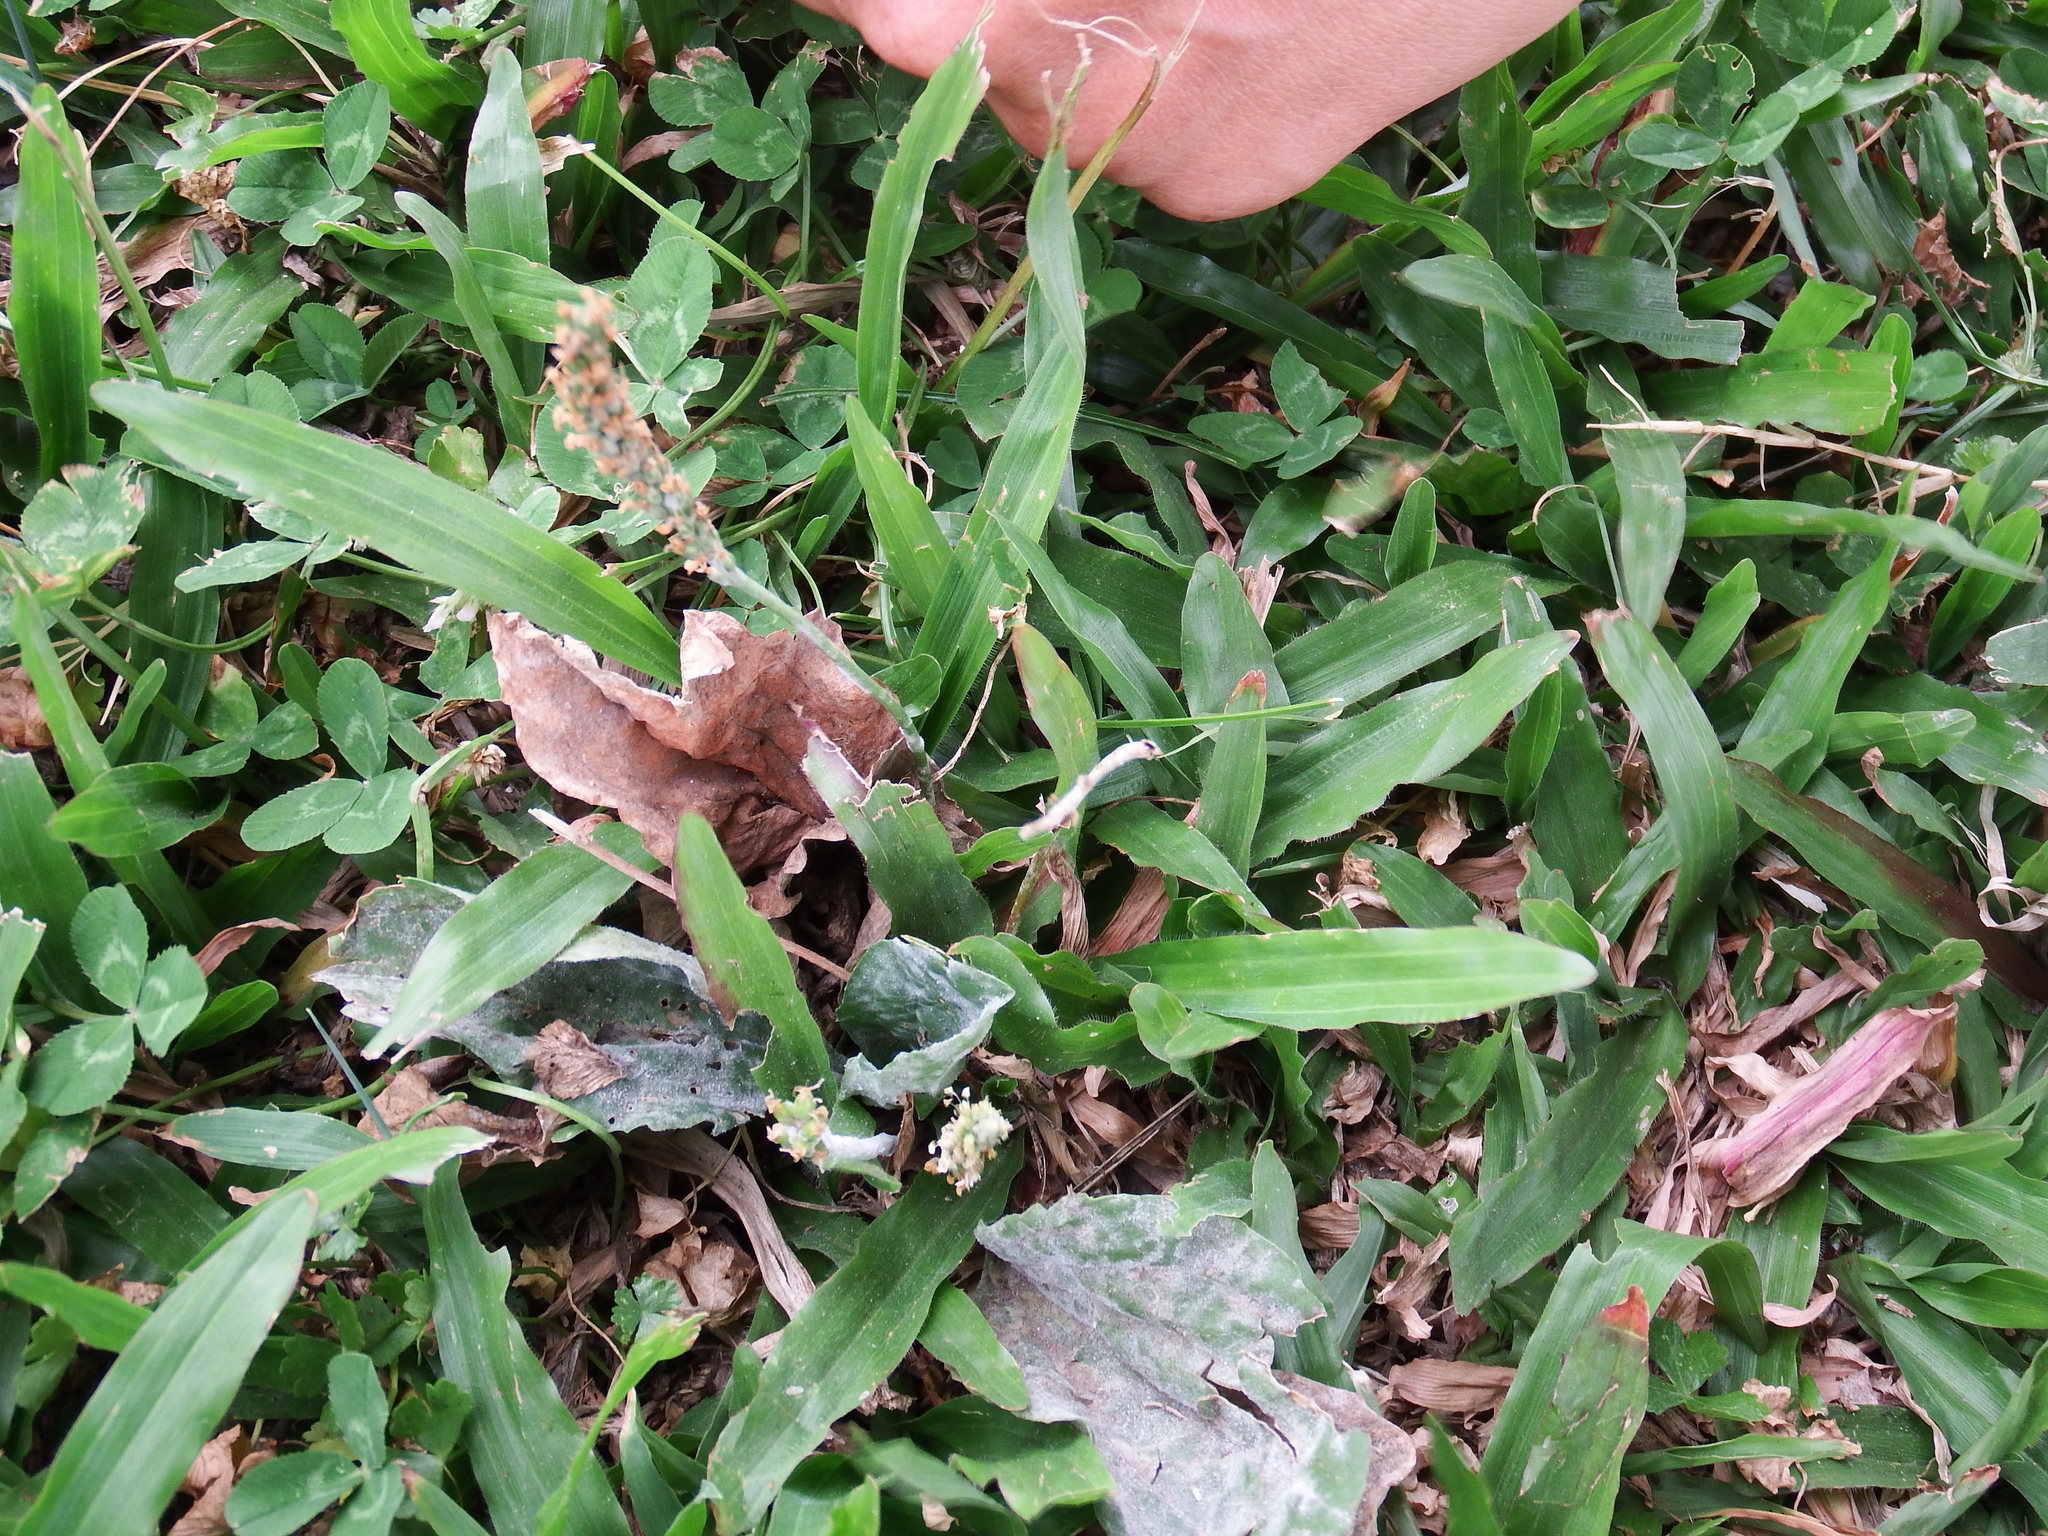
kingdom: Plantae
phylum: Tracheophyta
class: Liliopsida
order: Poales
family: Poaceae
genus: Axonopus
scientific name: Axonopus compressus
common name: American carpet grass
